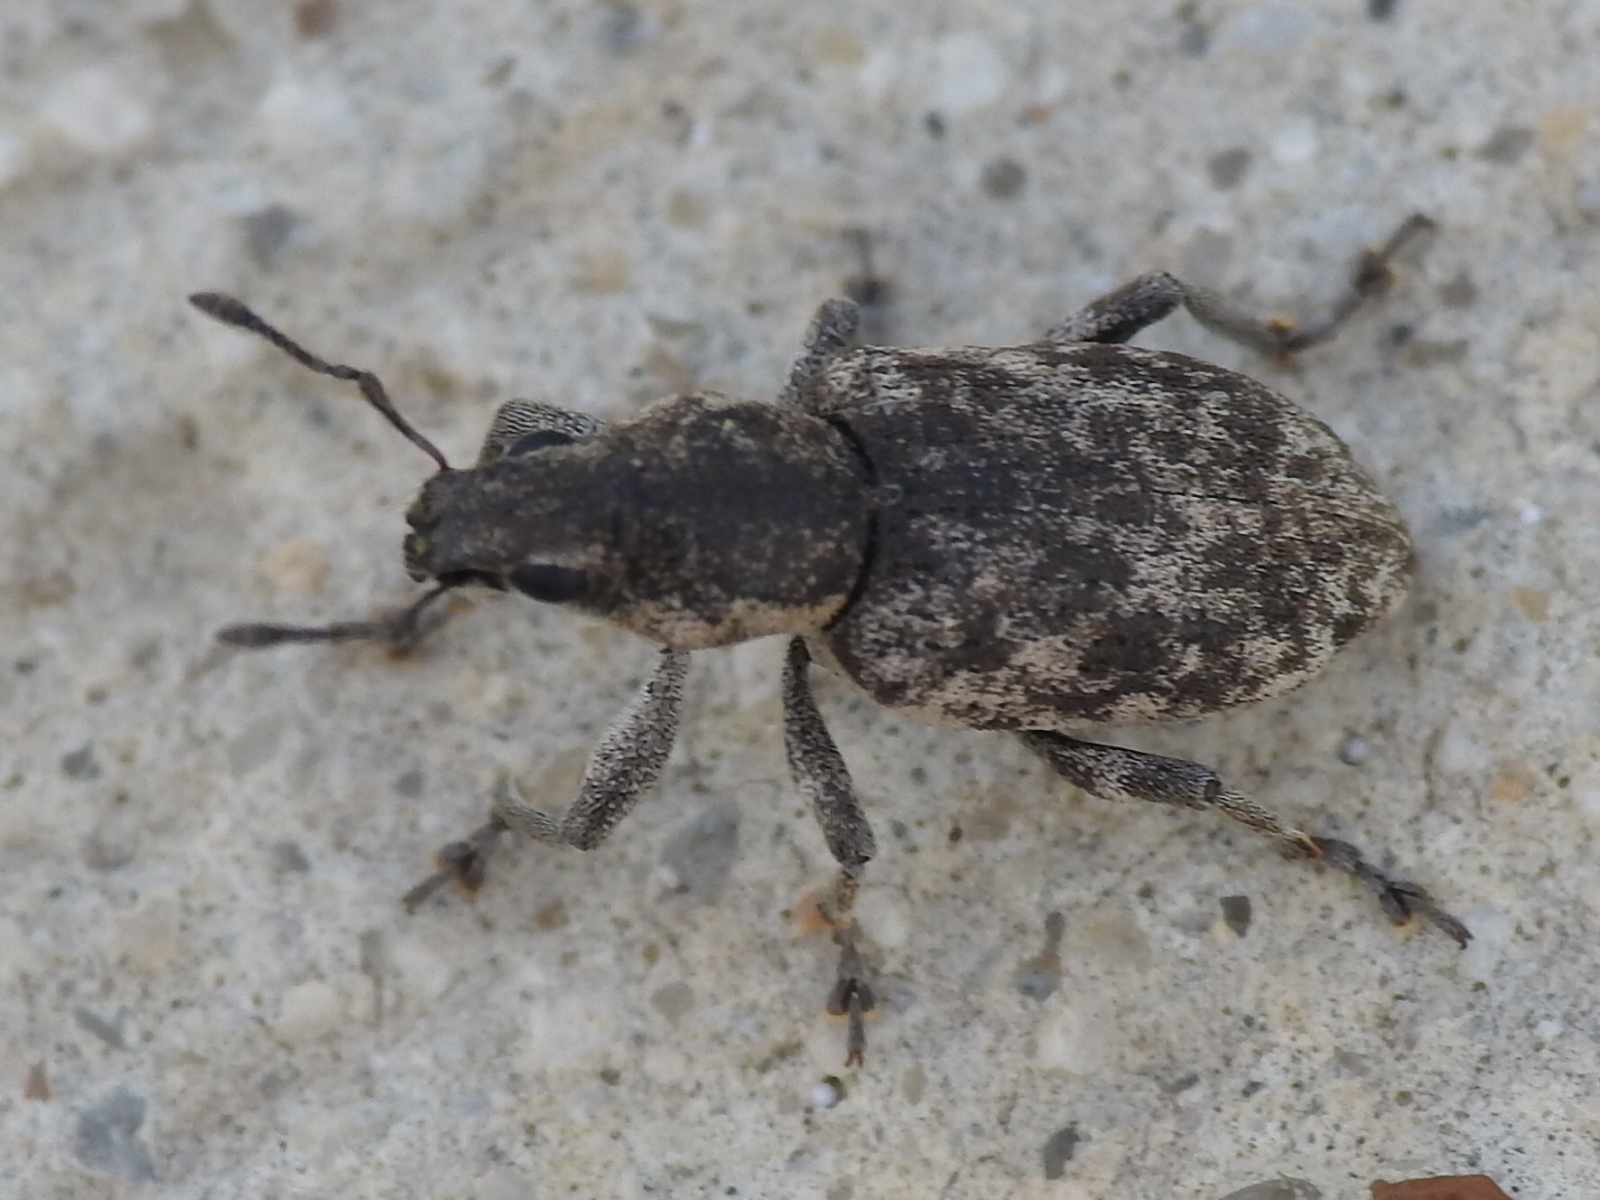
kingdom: Animalia
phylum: Arthropoda
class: Insecta
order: Coleoptera
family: Curculionidae
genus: Tanymecus
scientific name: Tanymecus confusus
